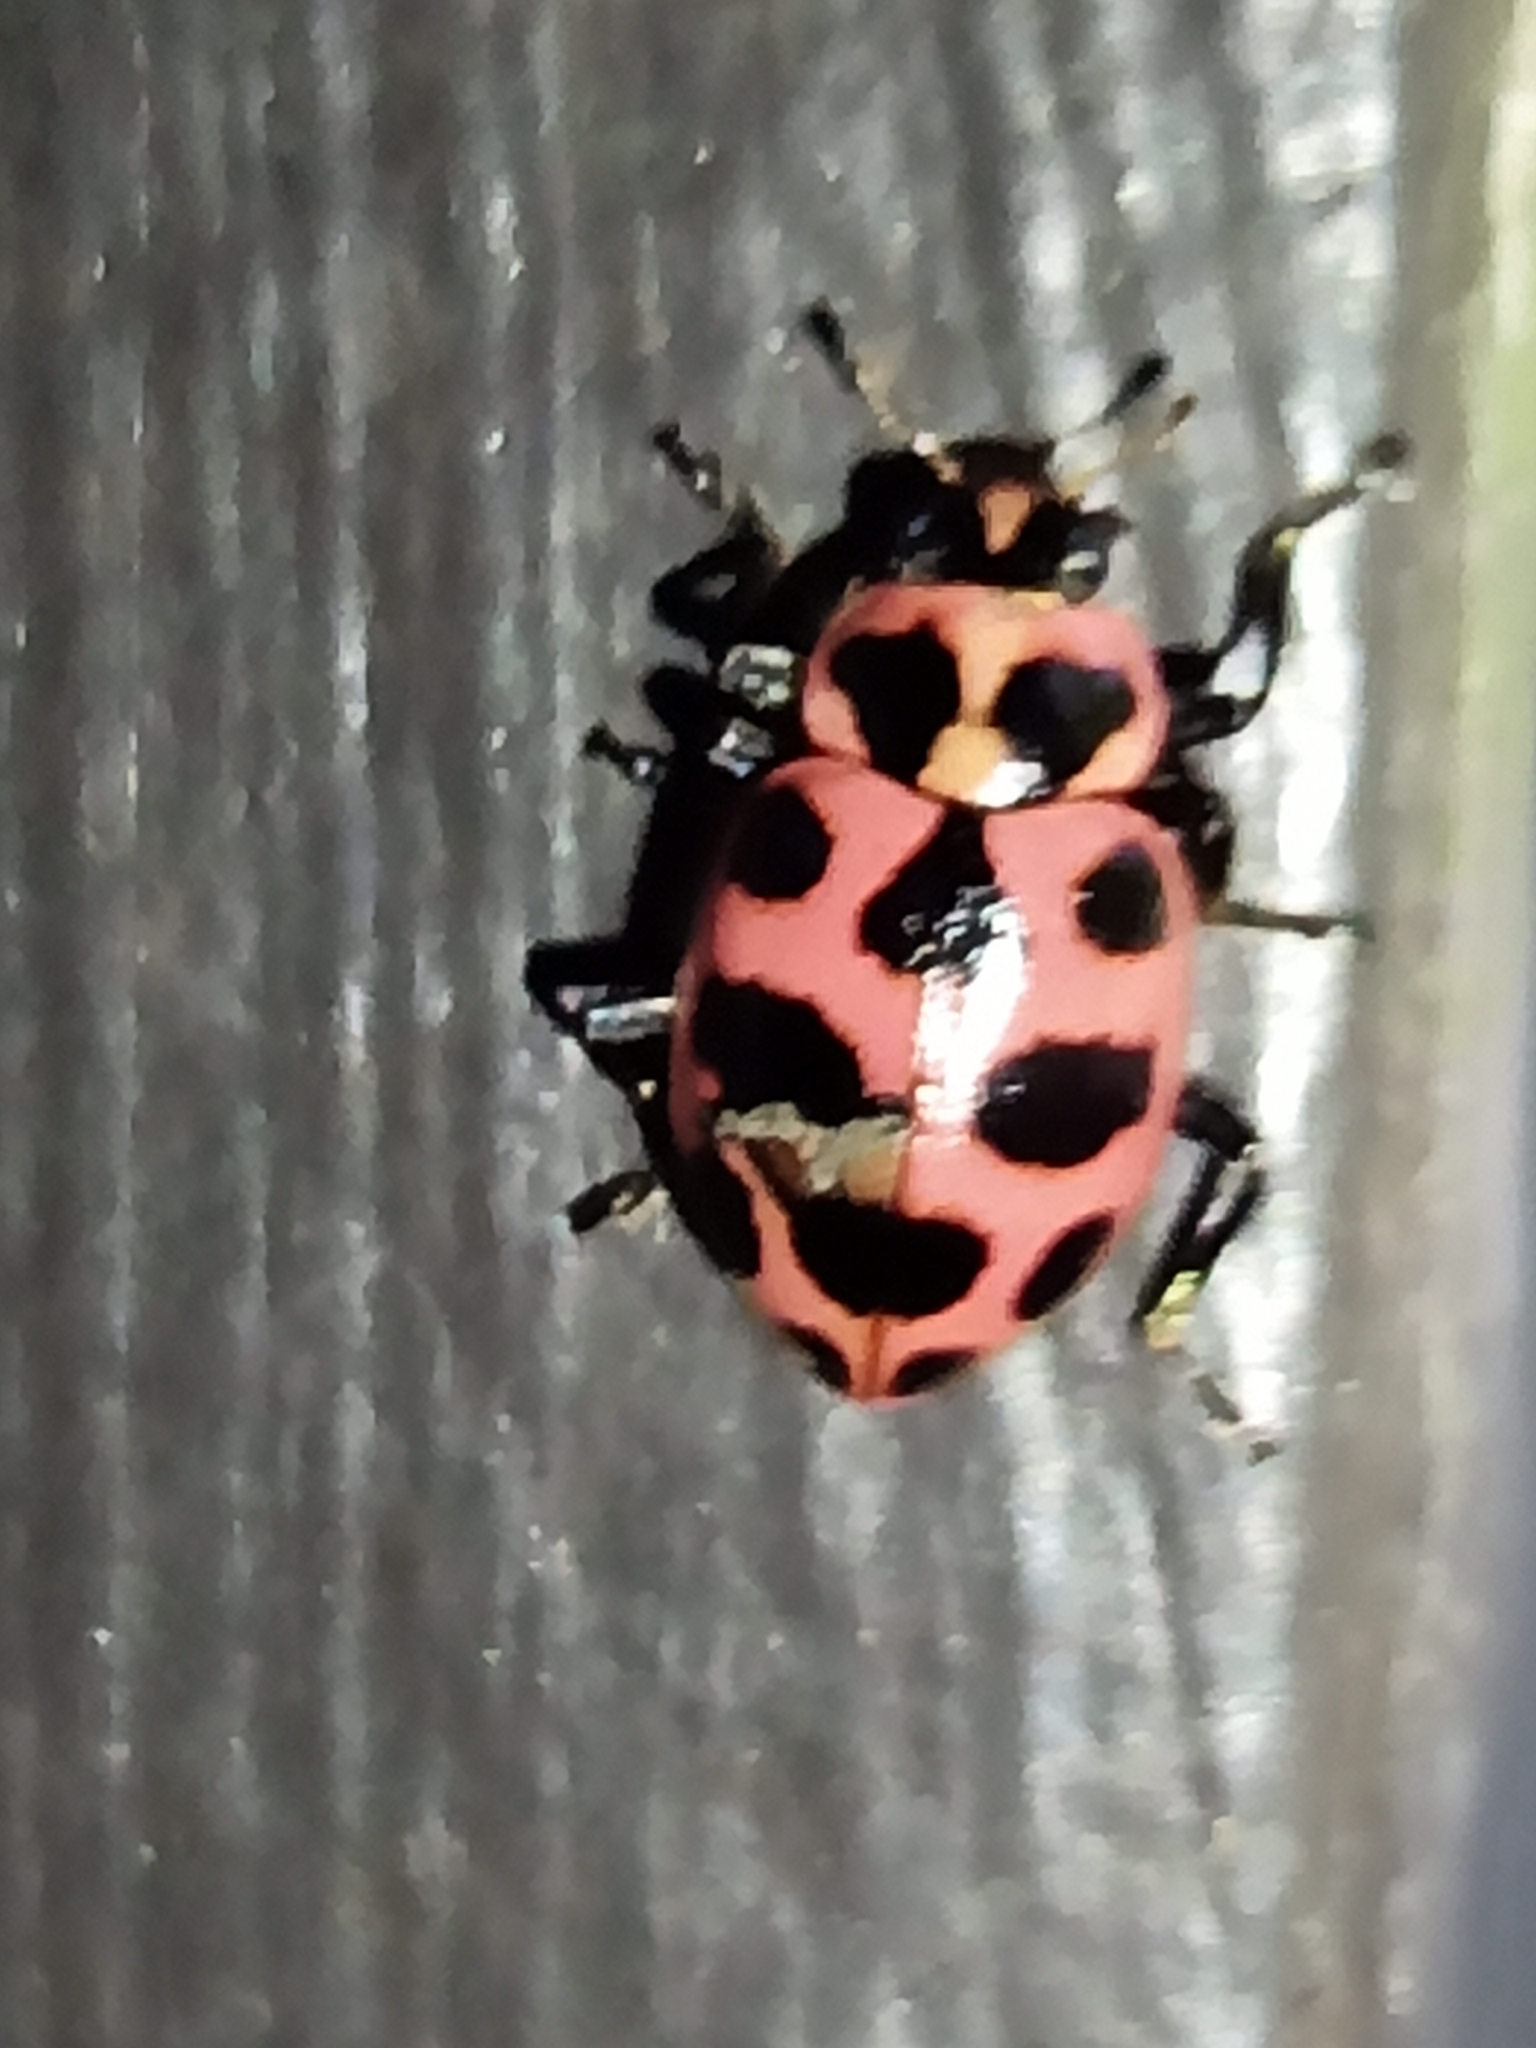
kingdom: Animalia
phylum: Arthropoda
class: Insecta
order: Coleoptera
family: Coccinellidae
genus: Coleomegilla
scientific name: Coleomegilla maculata
